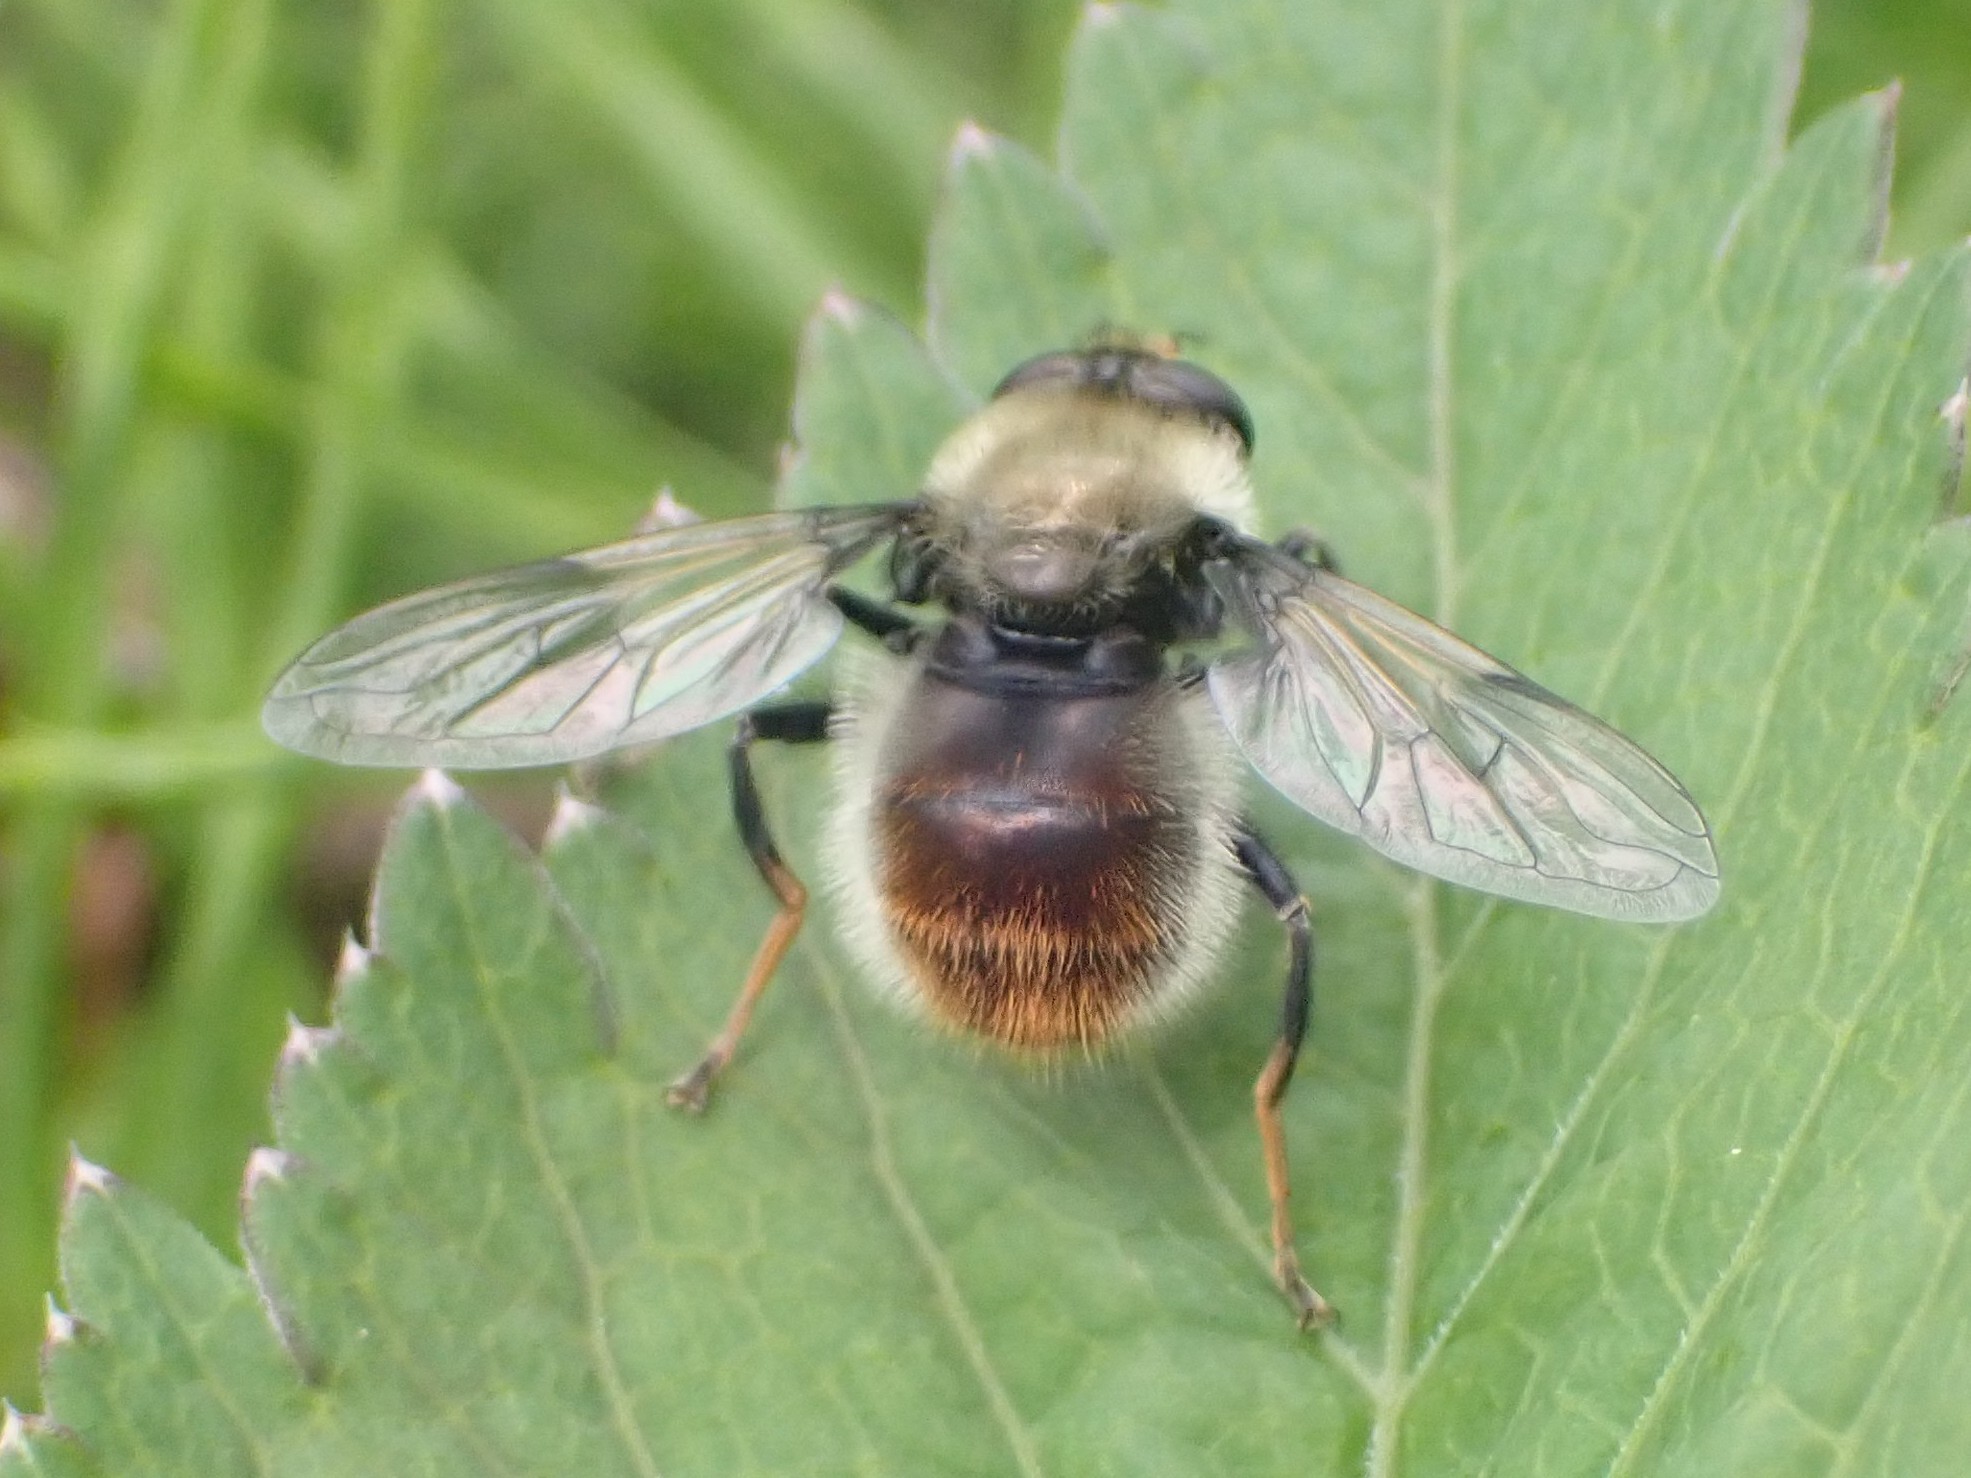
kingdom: Animalia
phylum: Arthropoda
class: Insecta
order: Diptera
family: Syrphidae
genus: Sericomyia
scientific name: Sericomyia flagrans
